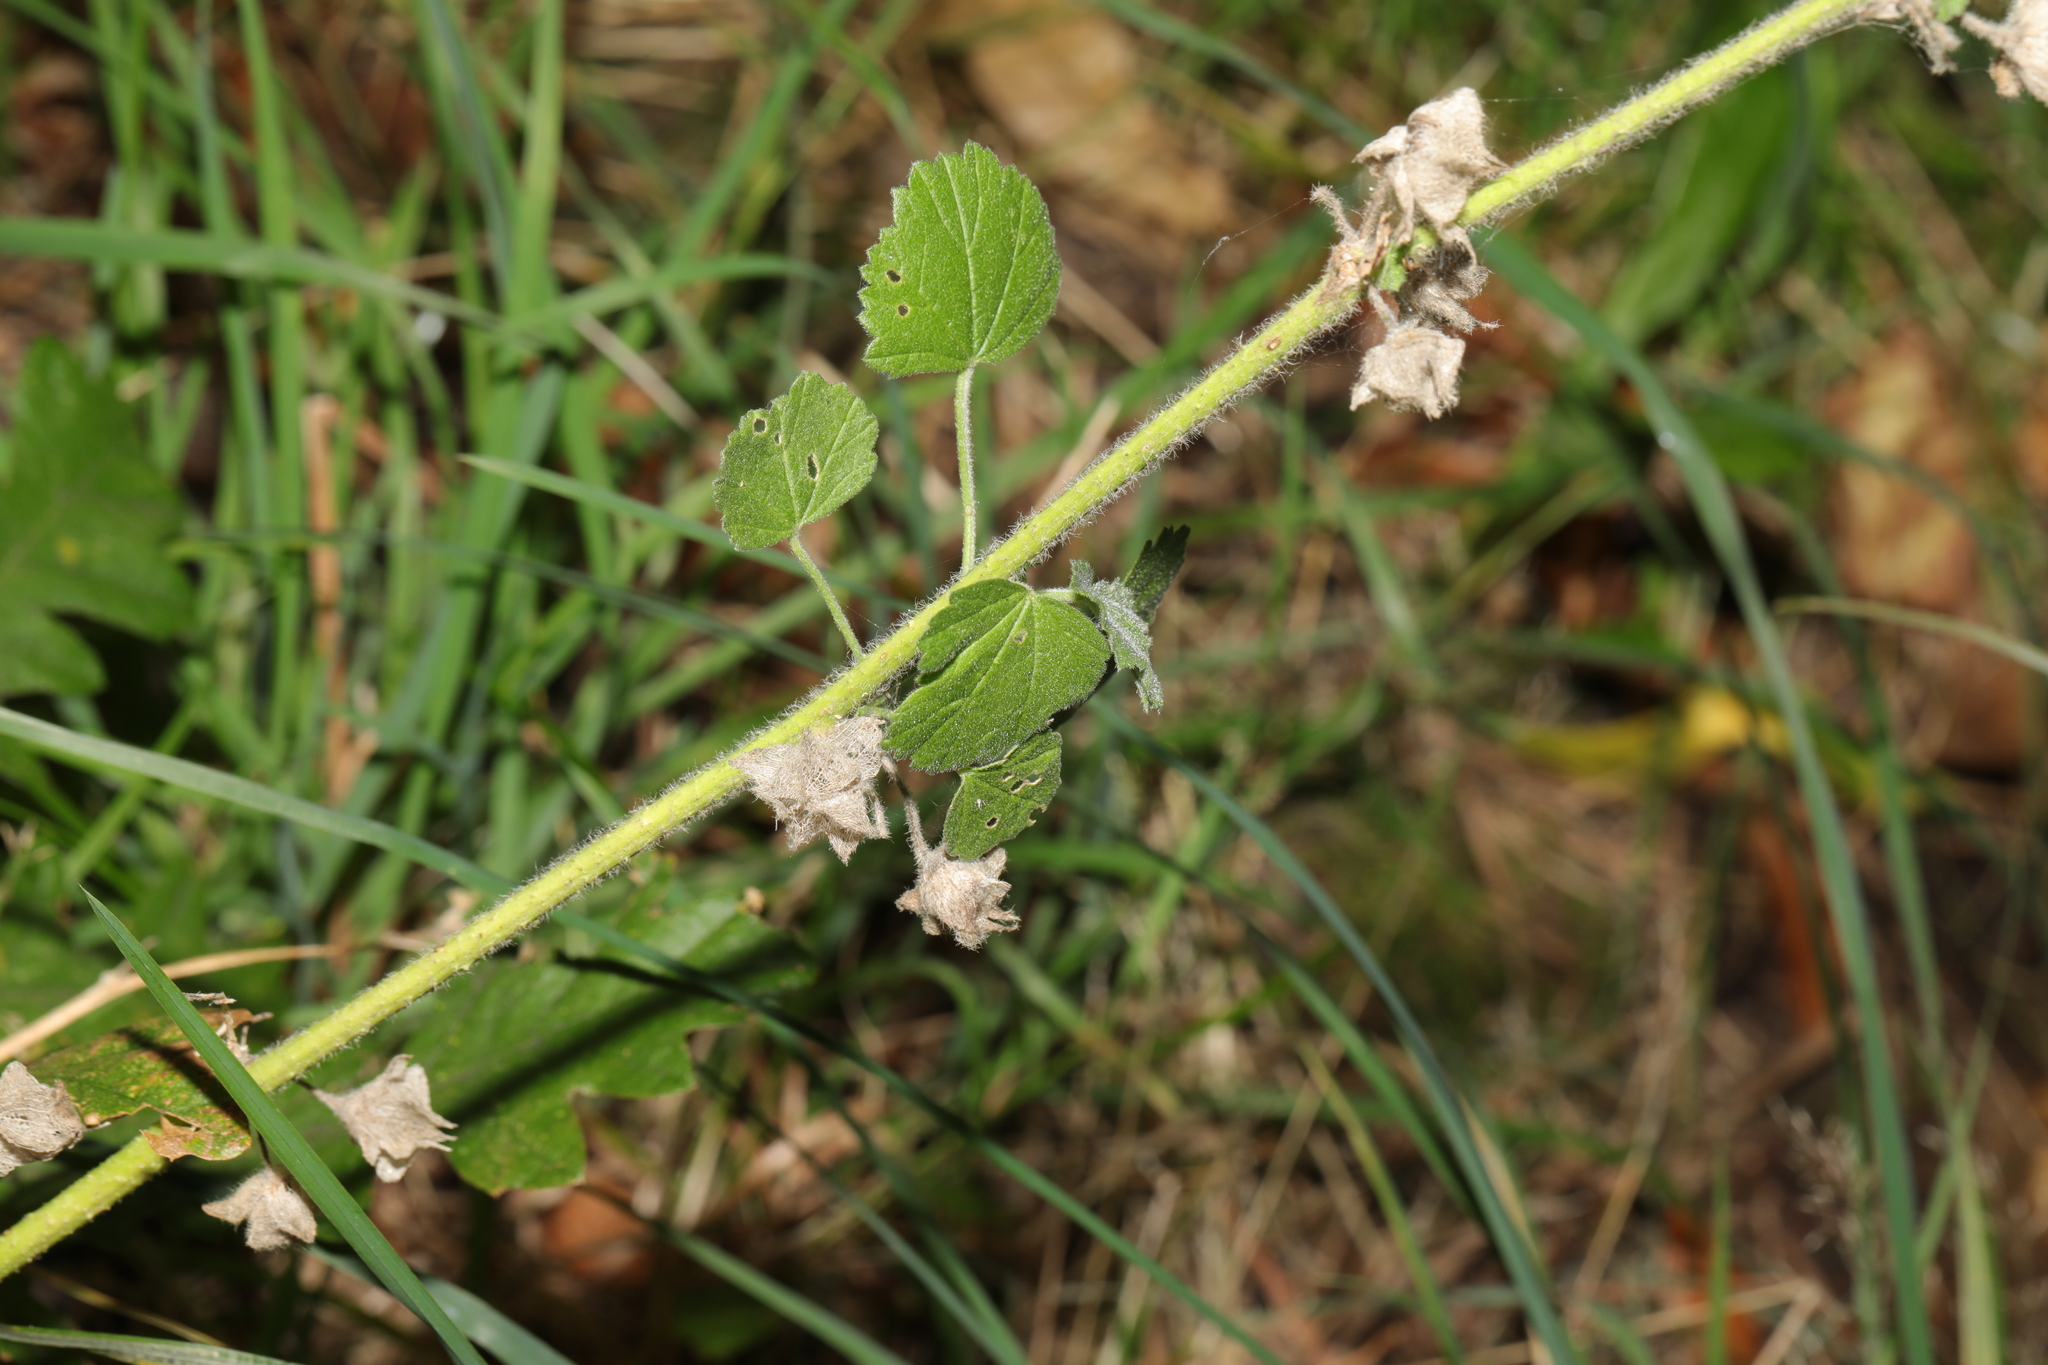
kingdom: Plantae
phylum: Tracheophyta
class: Magnoliopsida
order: Malvales
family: Malvaceae
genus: Malva
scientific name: Malva neglecta
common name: Common mallow
